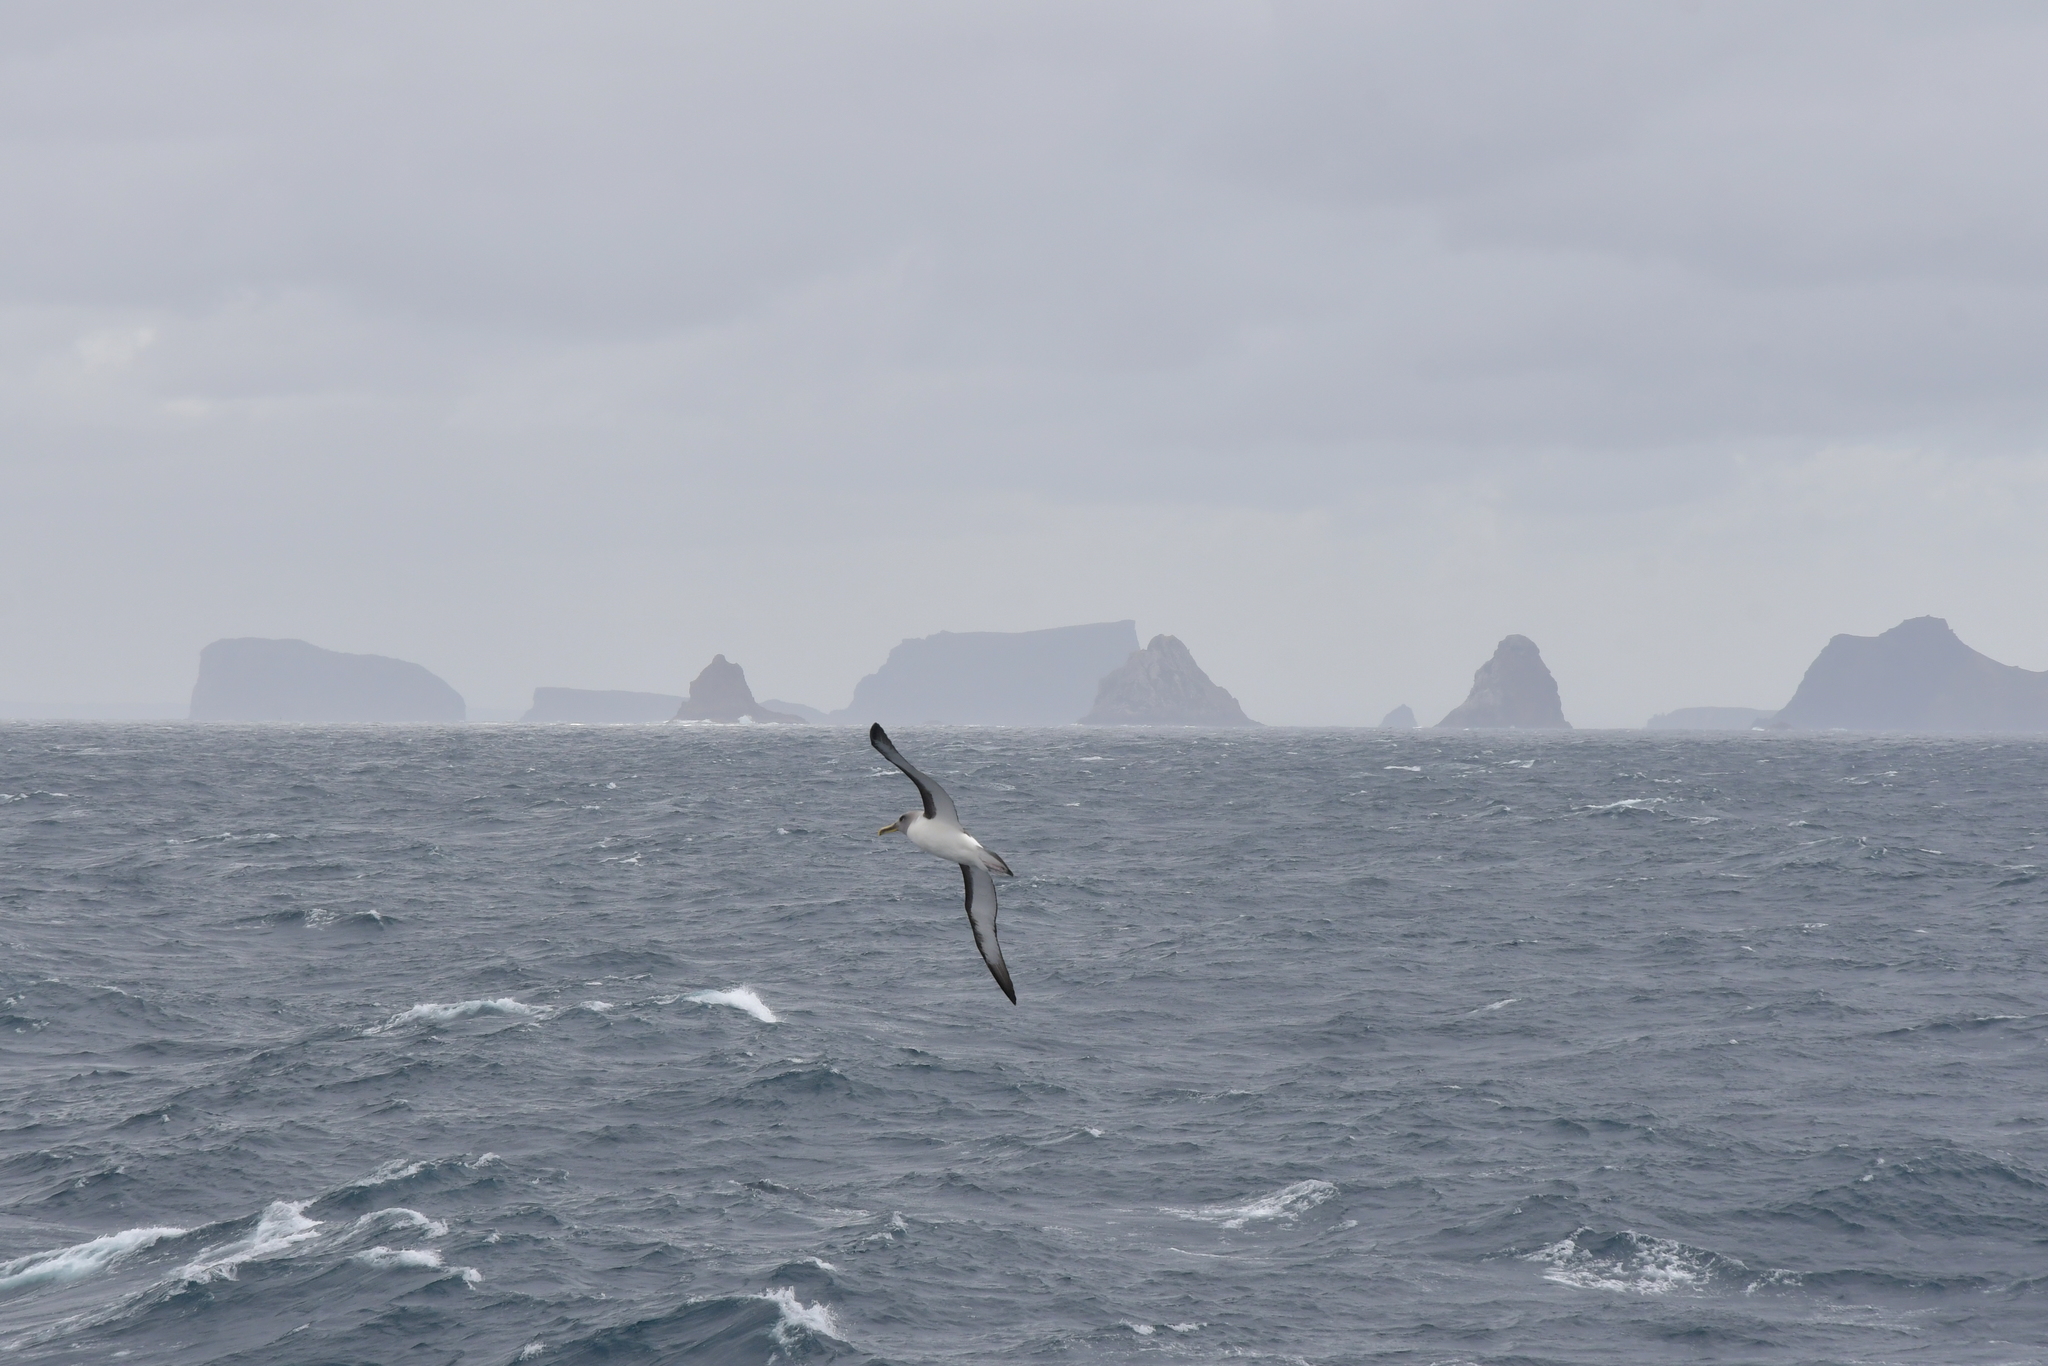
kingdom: Animalia
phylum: Chordata
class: Aves
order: Procellariiformes
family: Diomedeidae
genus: Thalassarche
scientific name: Thalassarche bulleri
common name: Buller's albatross
